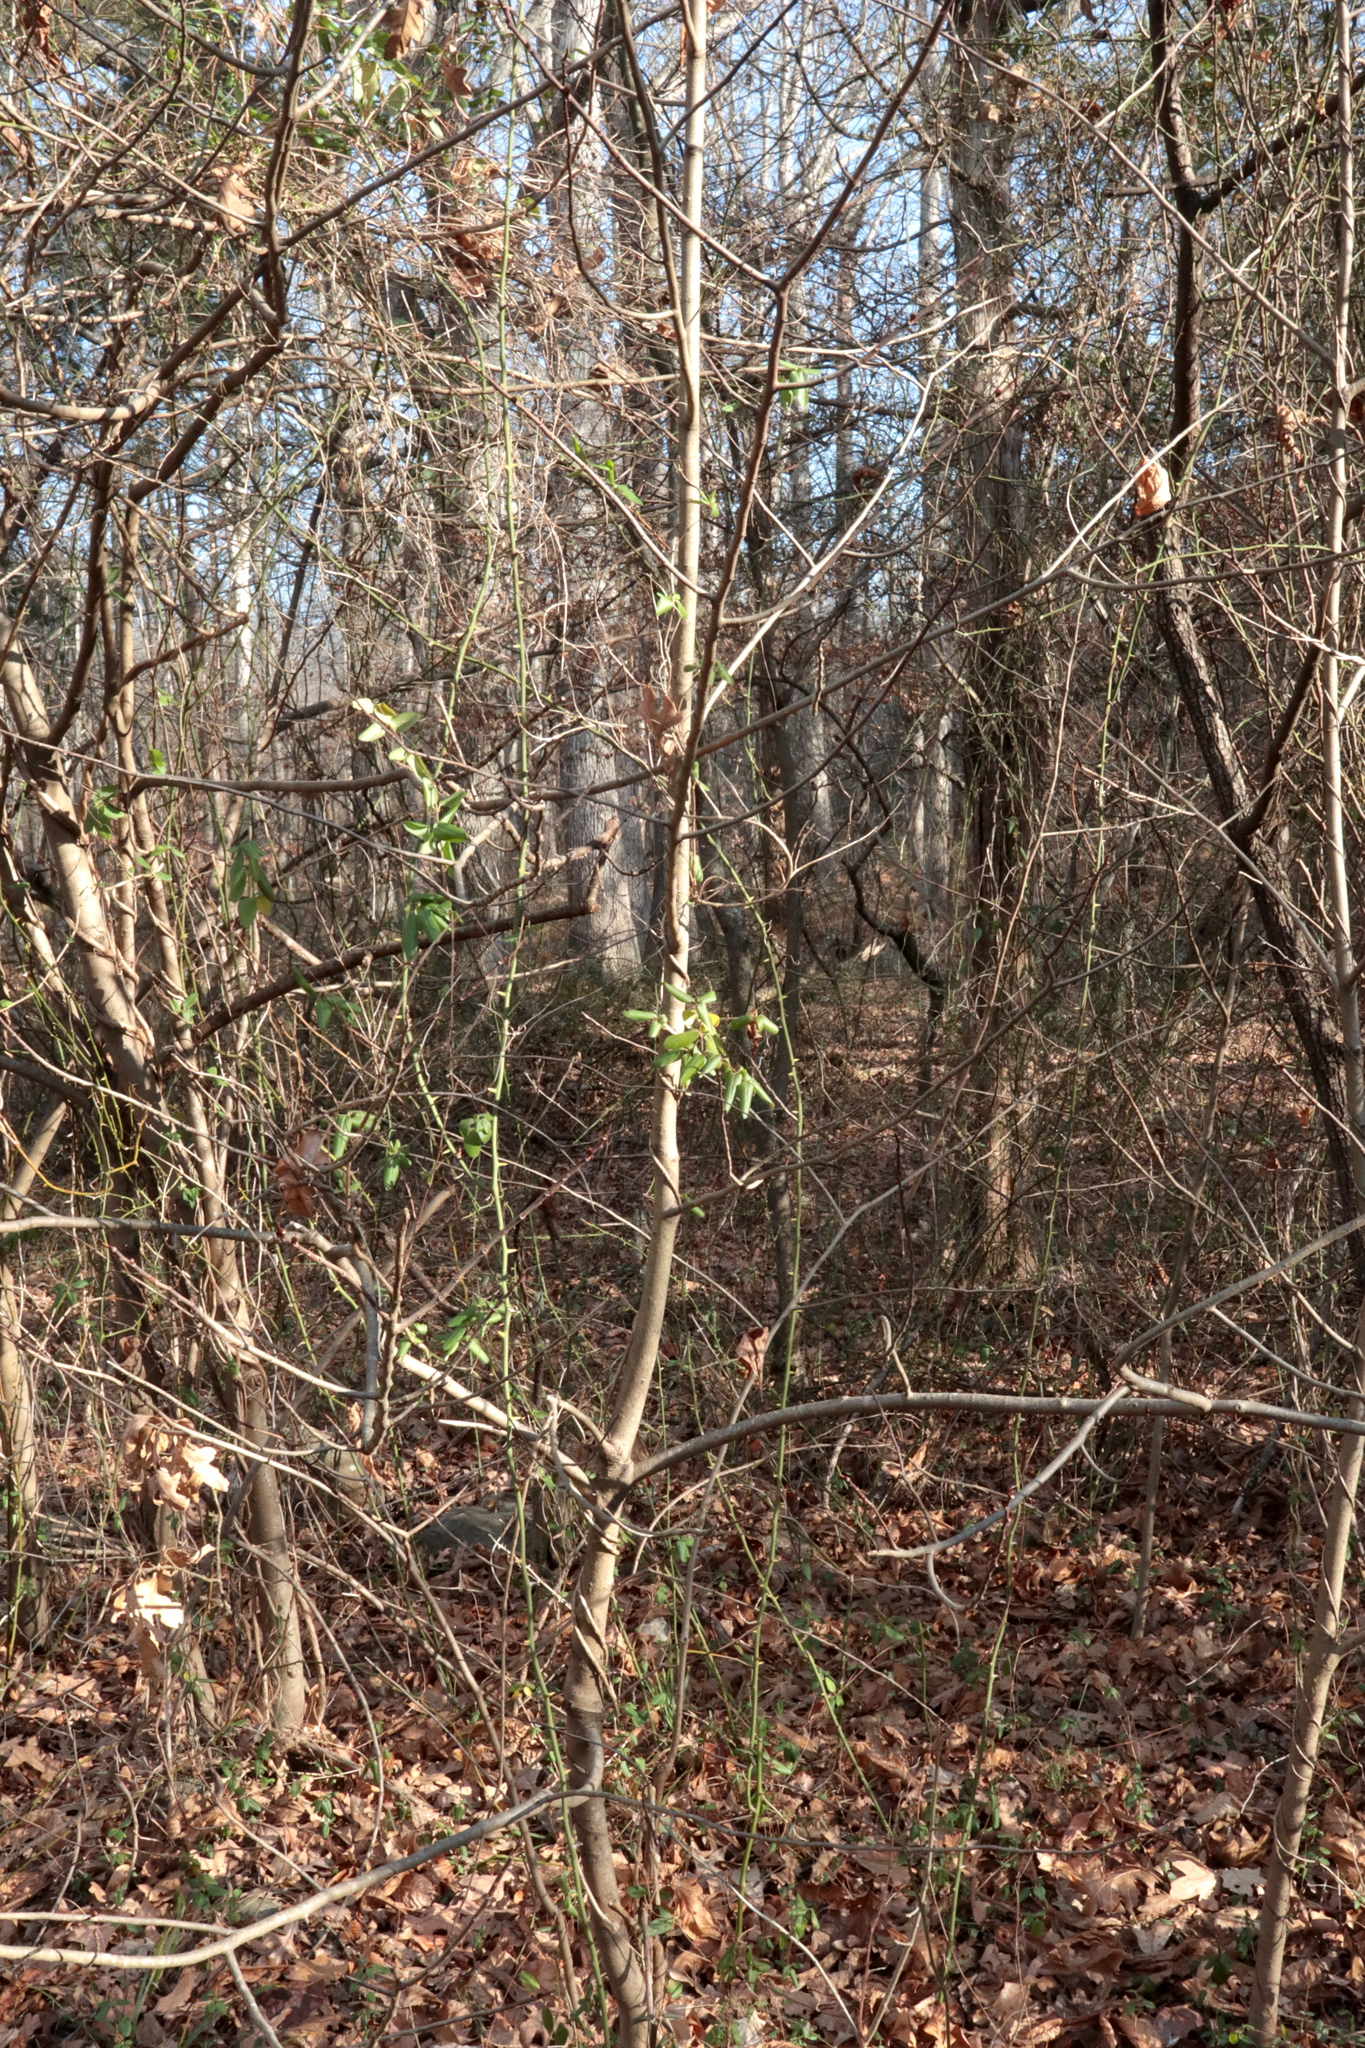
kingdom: Plantae
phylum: Tracheophyta
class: Magnoliopsida
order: Magnoliales
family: Annonaceae
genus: Asimina
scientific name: Asimina triloba
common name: Dog-banana
